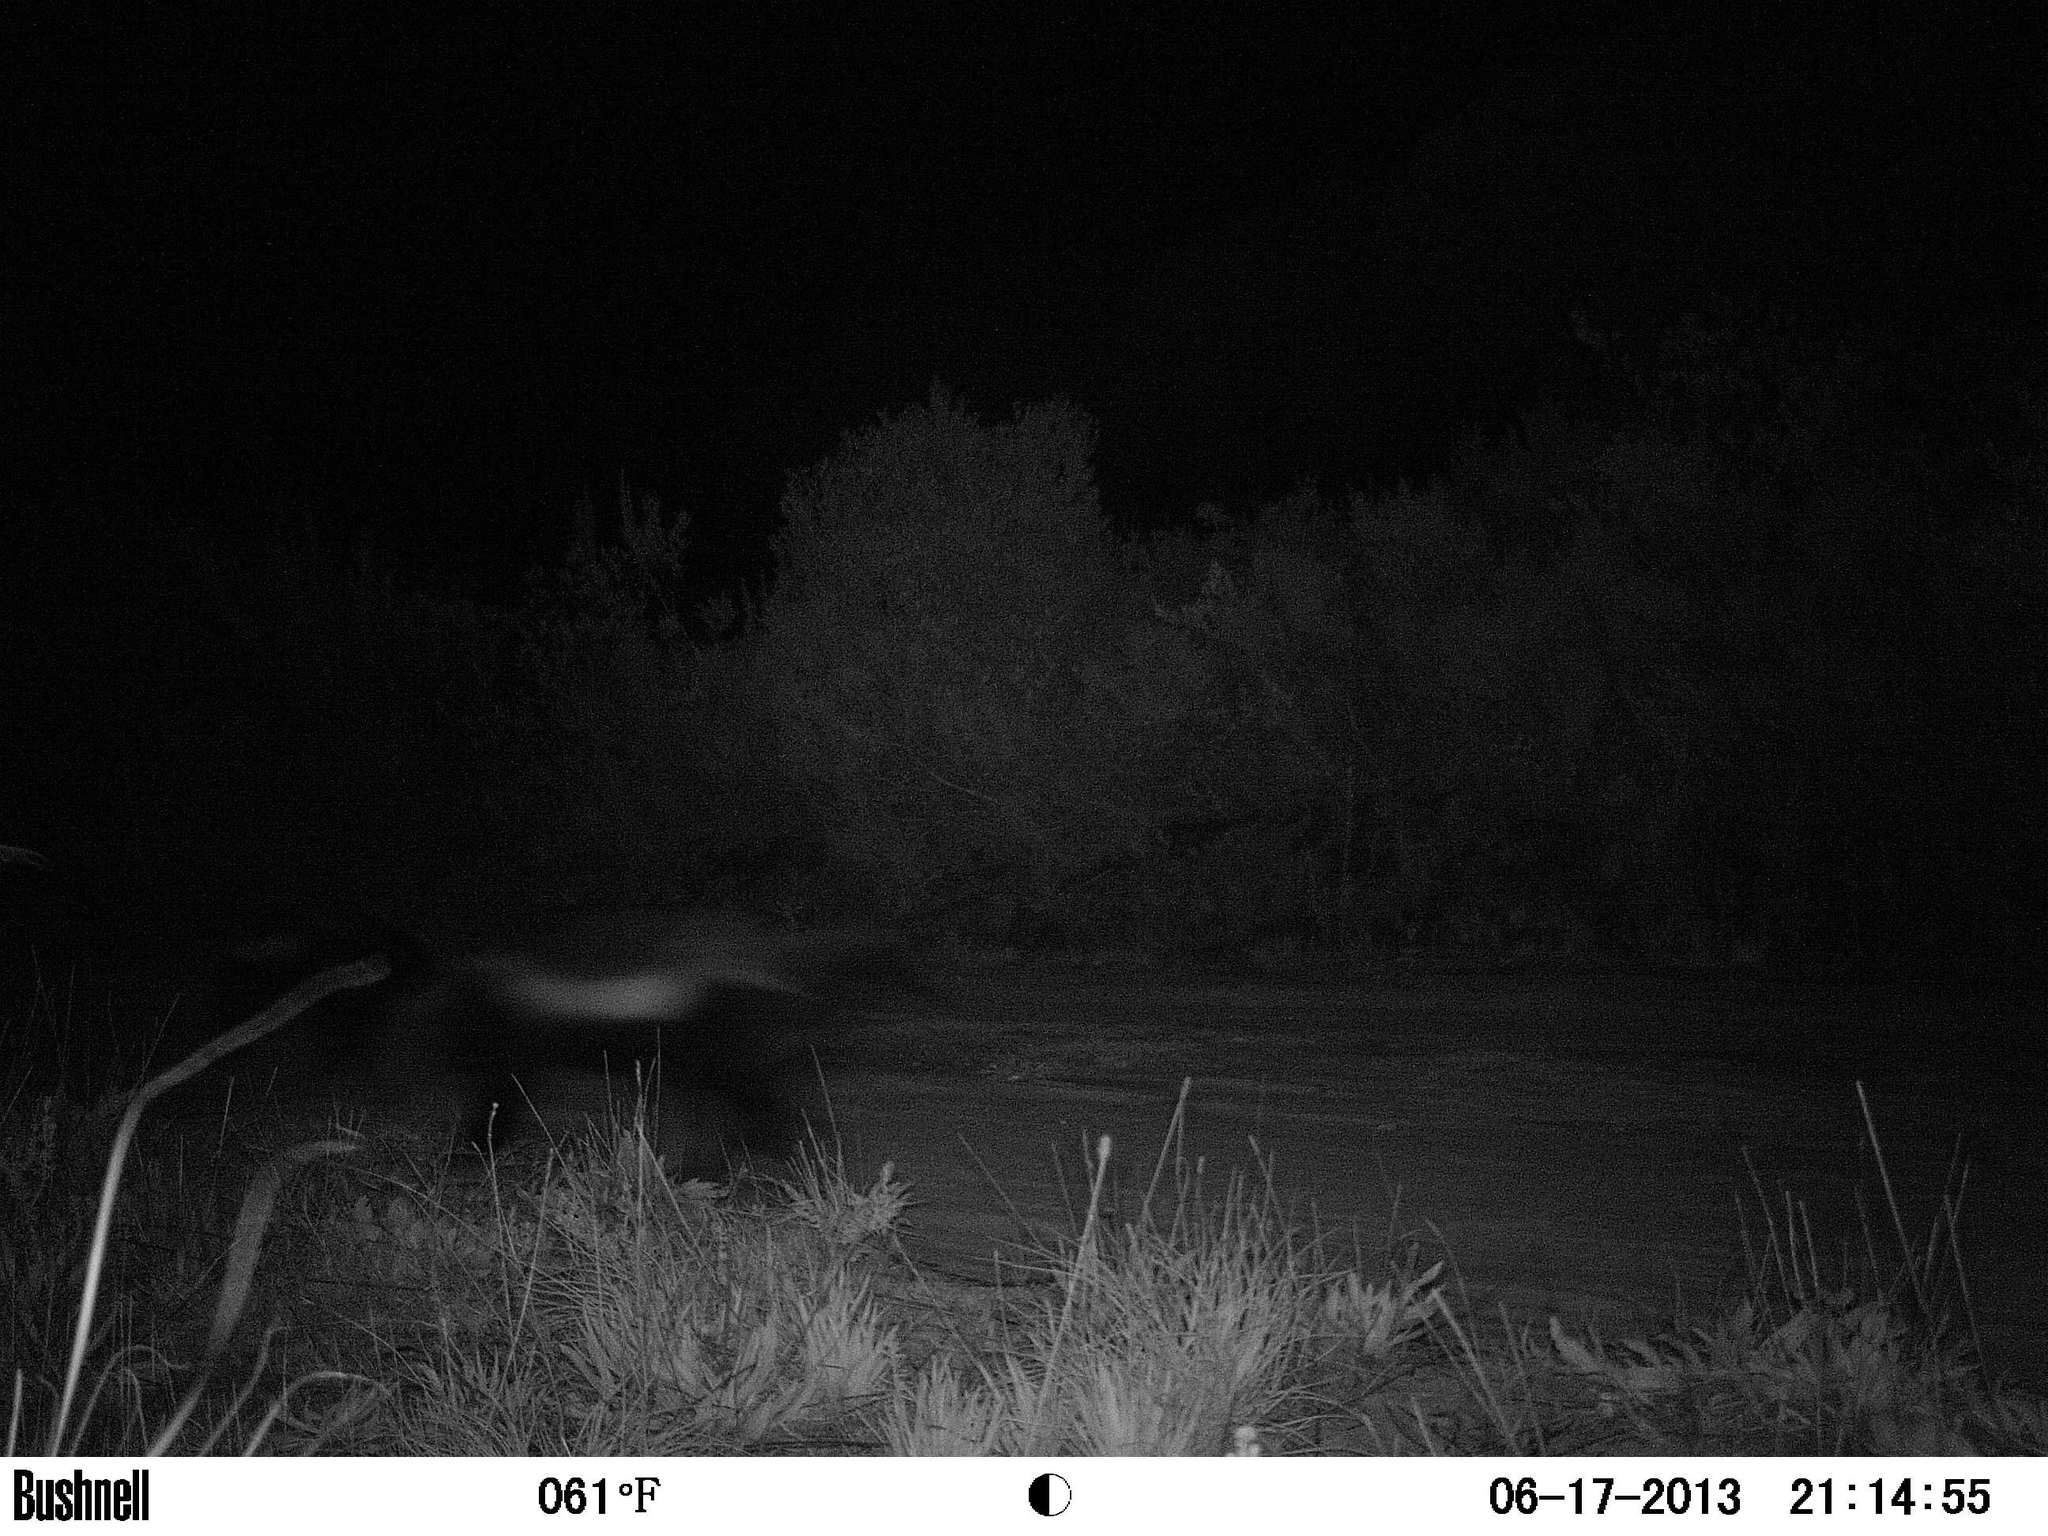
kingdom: Animalia
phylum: Chordata
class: Mammalia
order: Carnivora
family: Mustelidae
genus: Mellivora
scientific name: Mellivora capensis
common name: Honey badger
